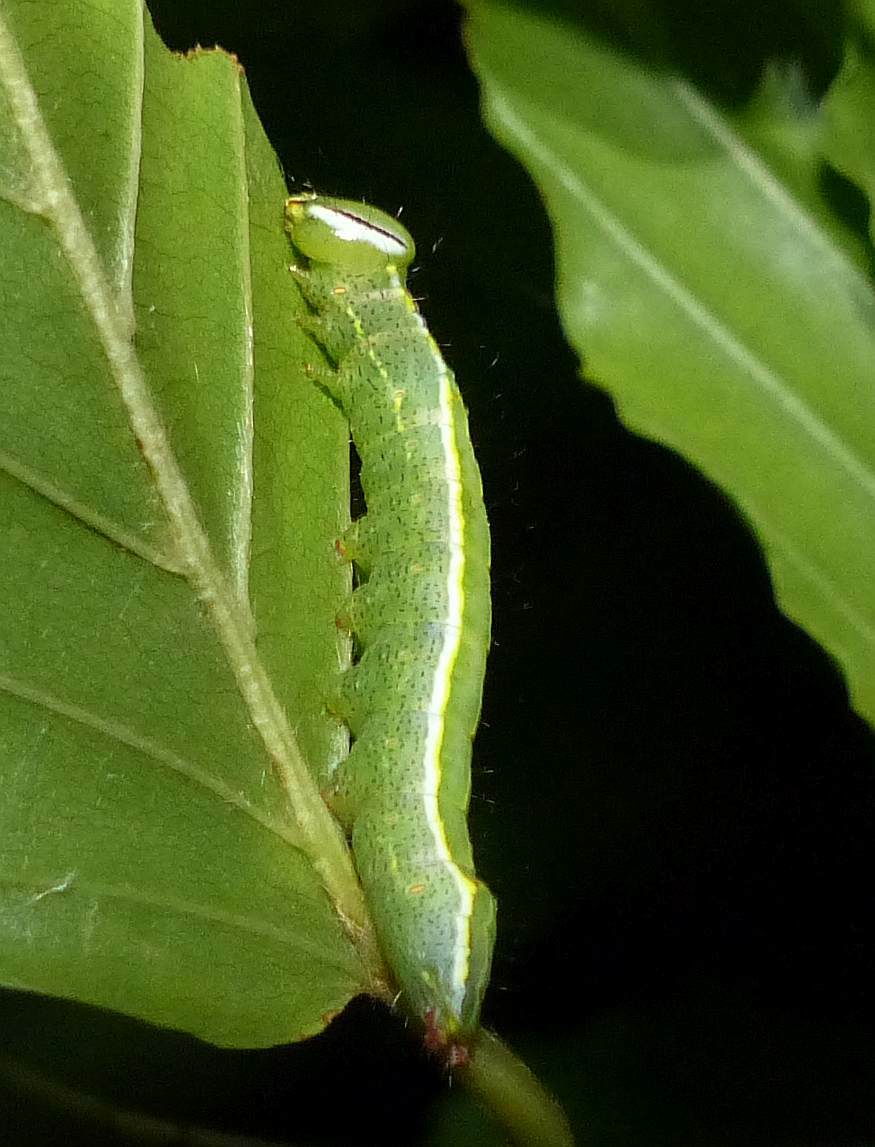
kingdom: Animalia
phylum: Arthropoda
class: Insecta
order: Lepidoptera
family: Notodontidae
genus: Lochmaeus
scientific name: Lochmaeus manteo
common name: Variable oakleaf caterpillar moth
